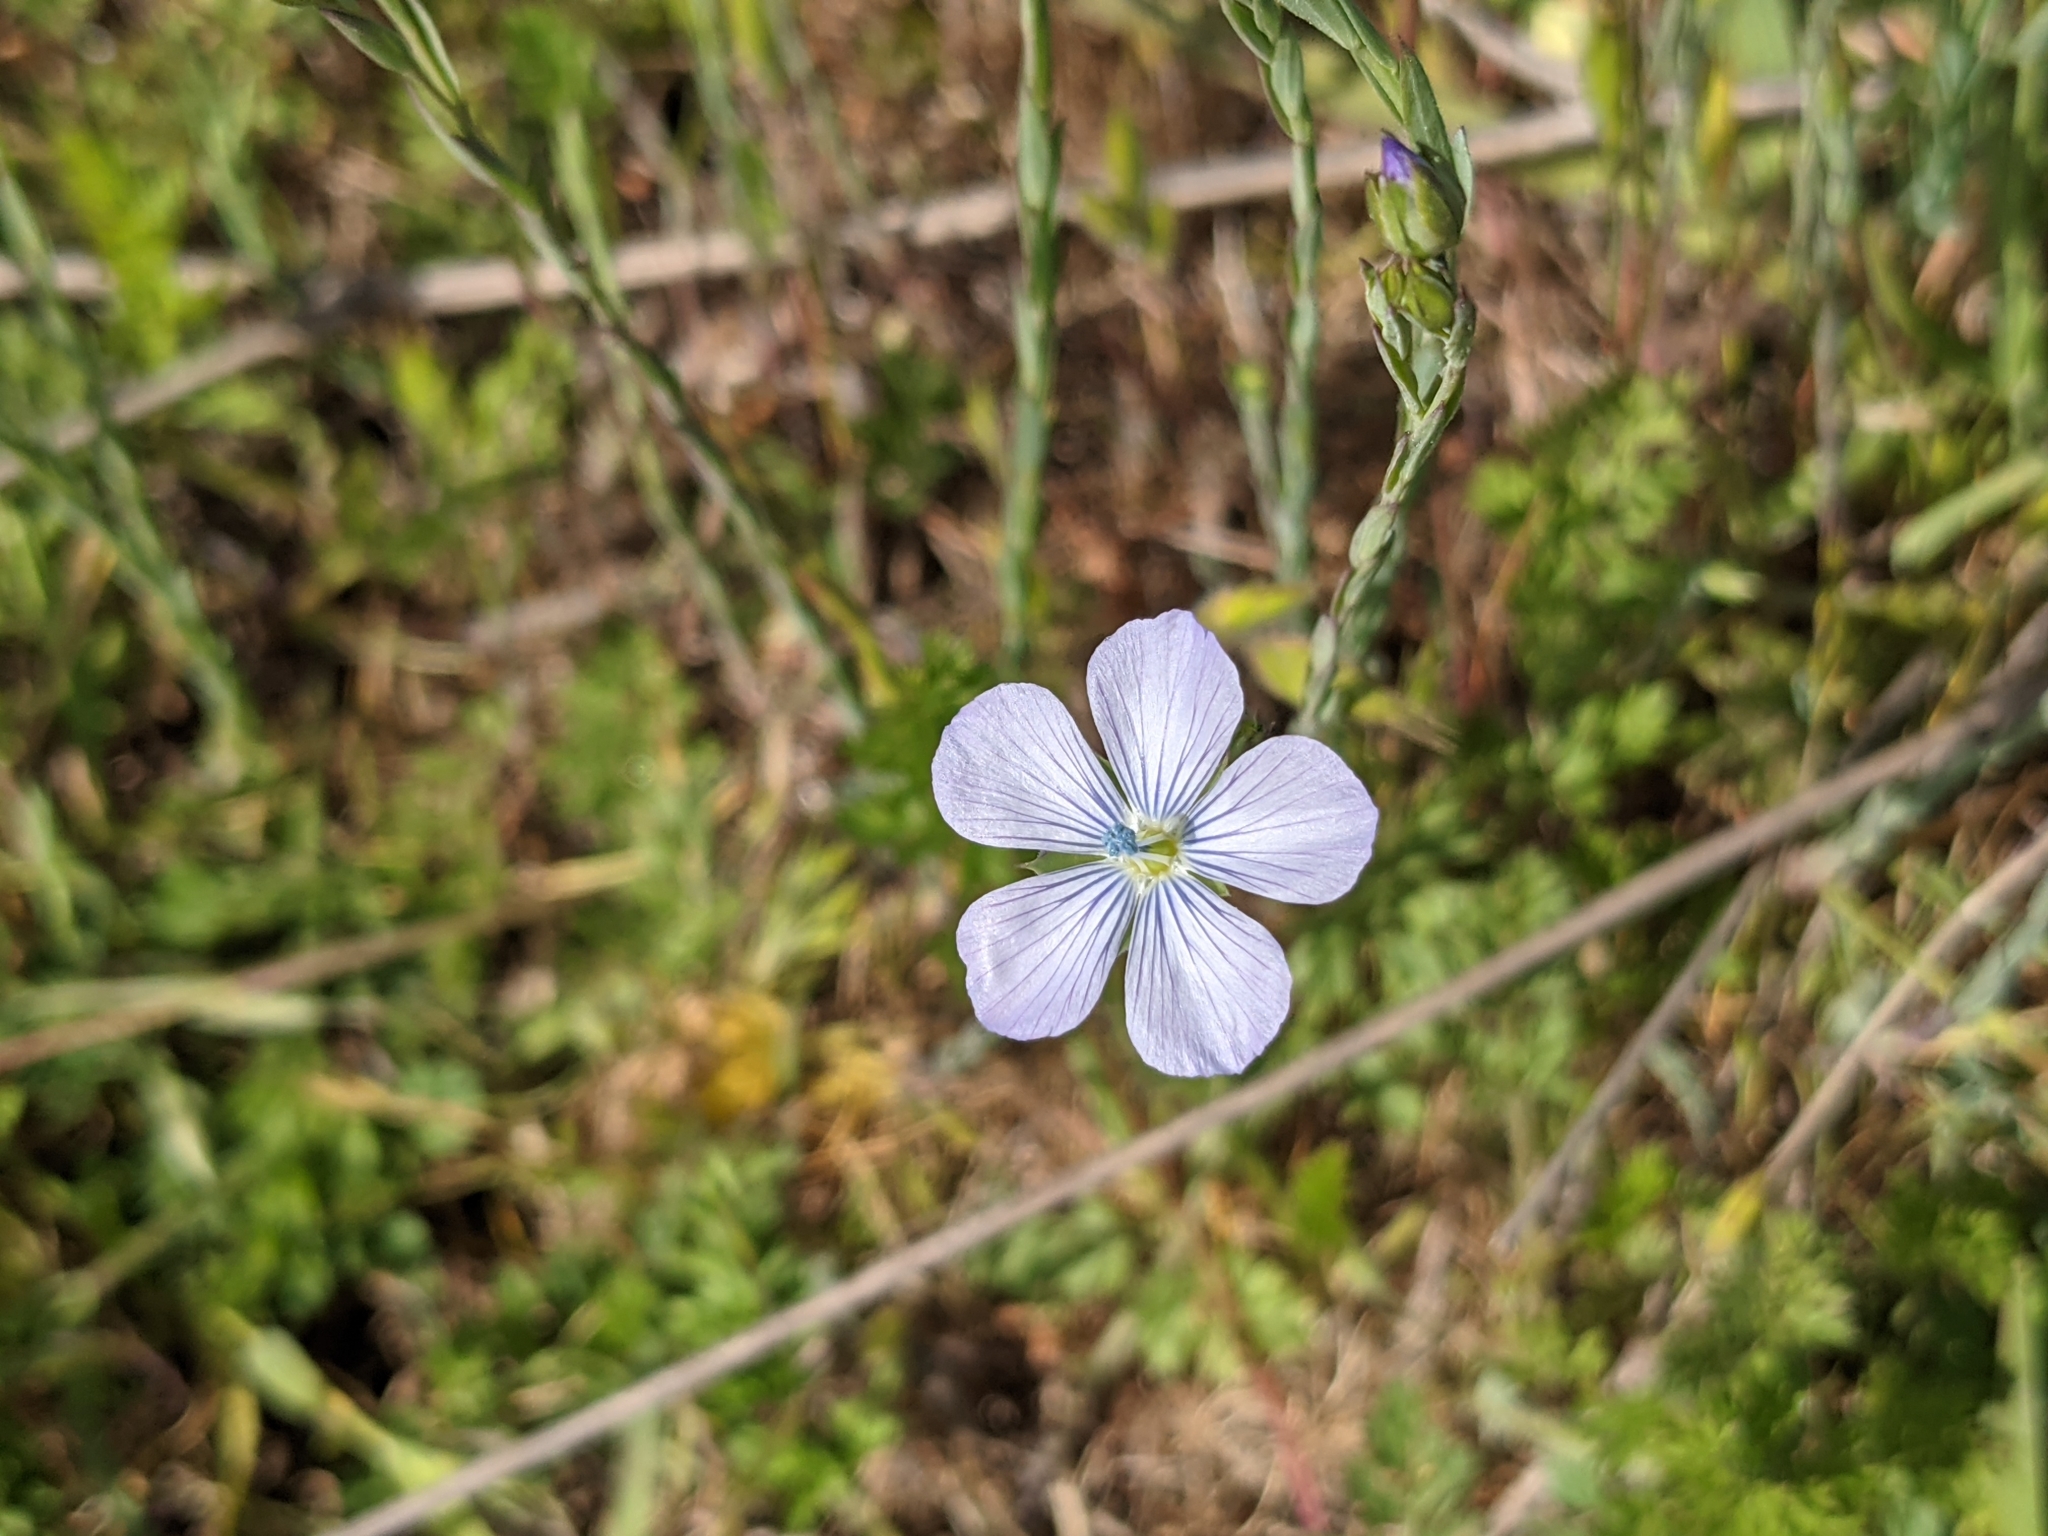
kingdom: Plantae
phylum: Tracheophyta
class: Magnoliopsida
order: Malpighiales
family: Linaceae
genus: Linum
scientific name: Linum bienne
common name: Pale flax
